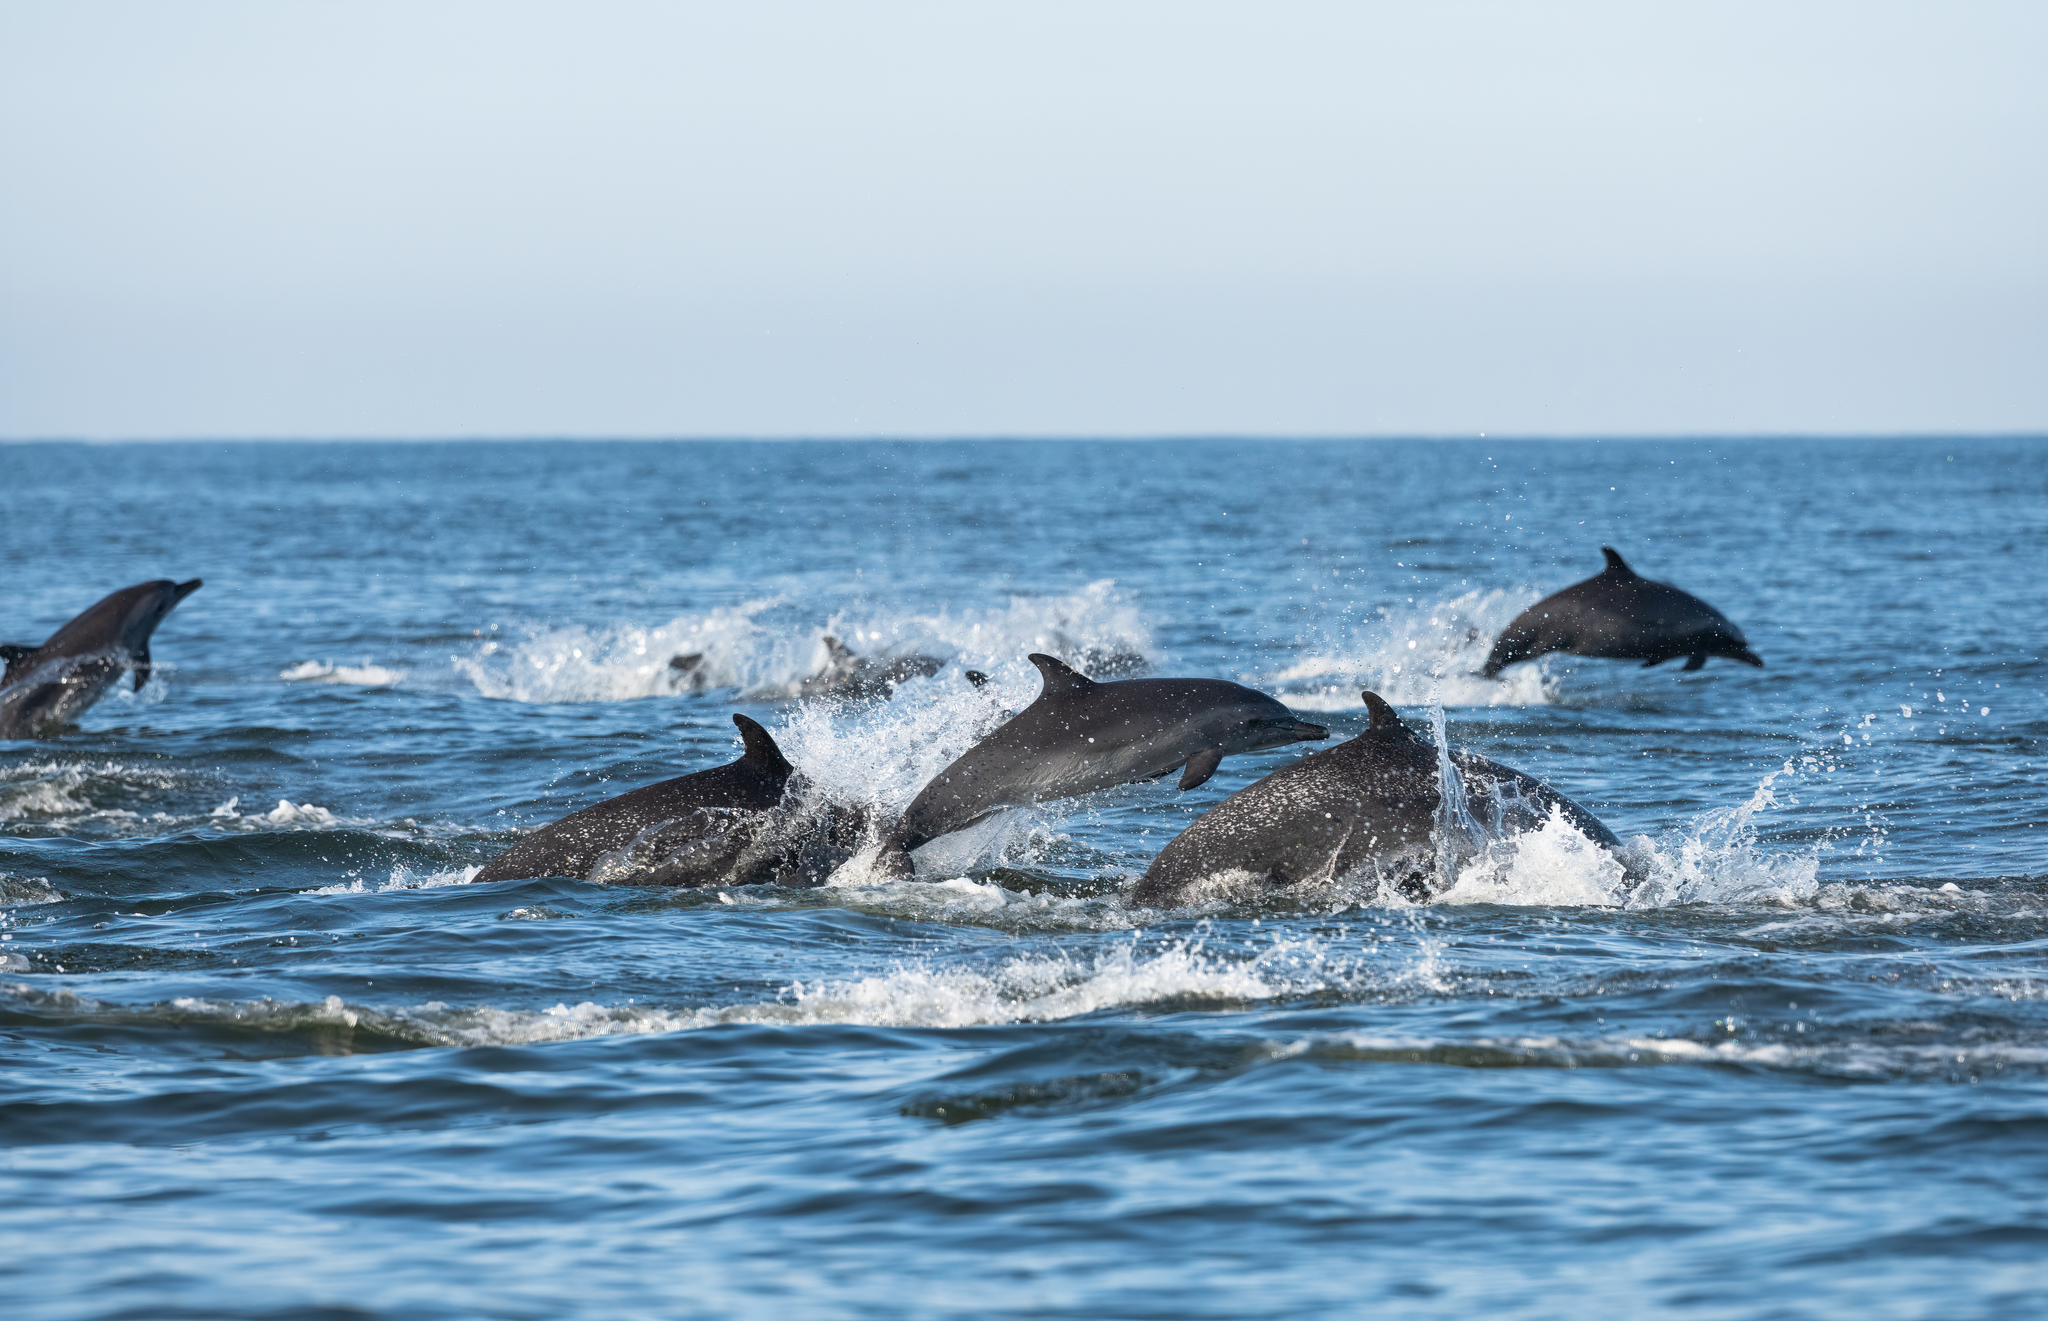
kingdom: Animalia
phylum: Chordata
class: Mammalia
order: Cetacea
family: Delphinidae
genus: Stenella
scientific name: Stenella attenuata
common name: Pantropical spotted dolphin
